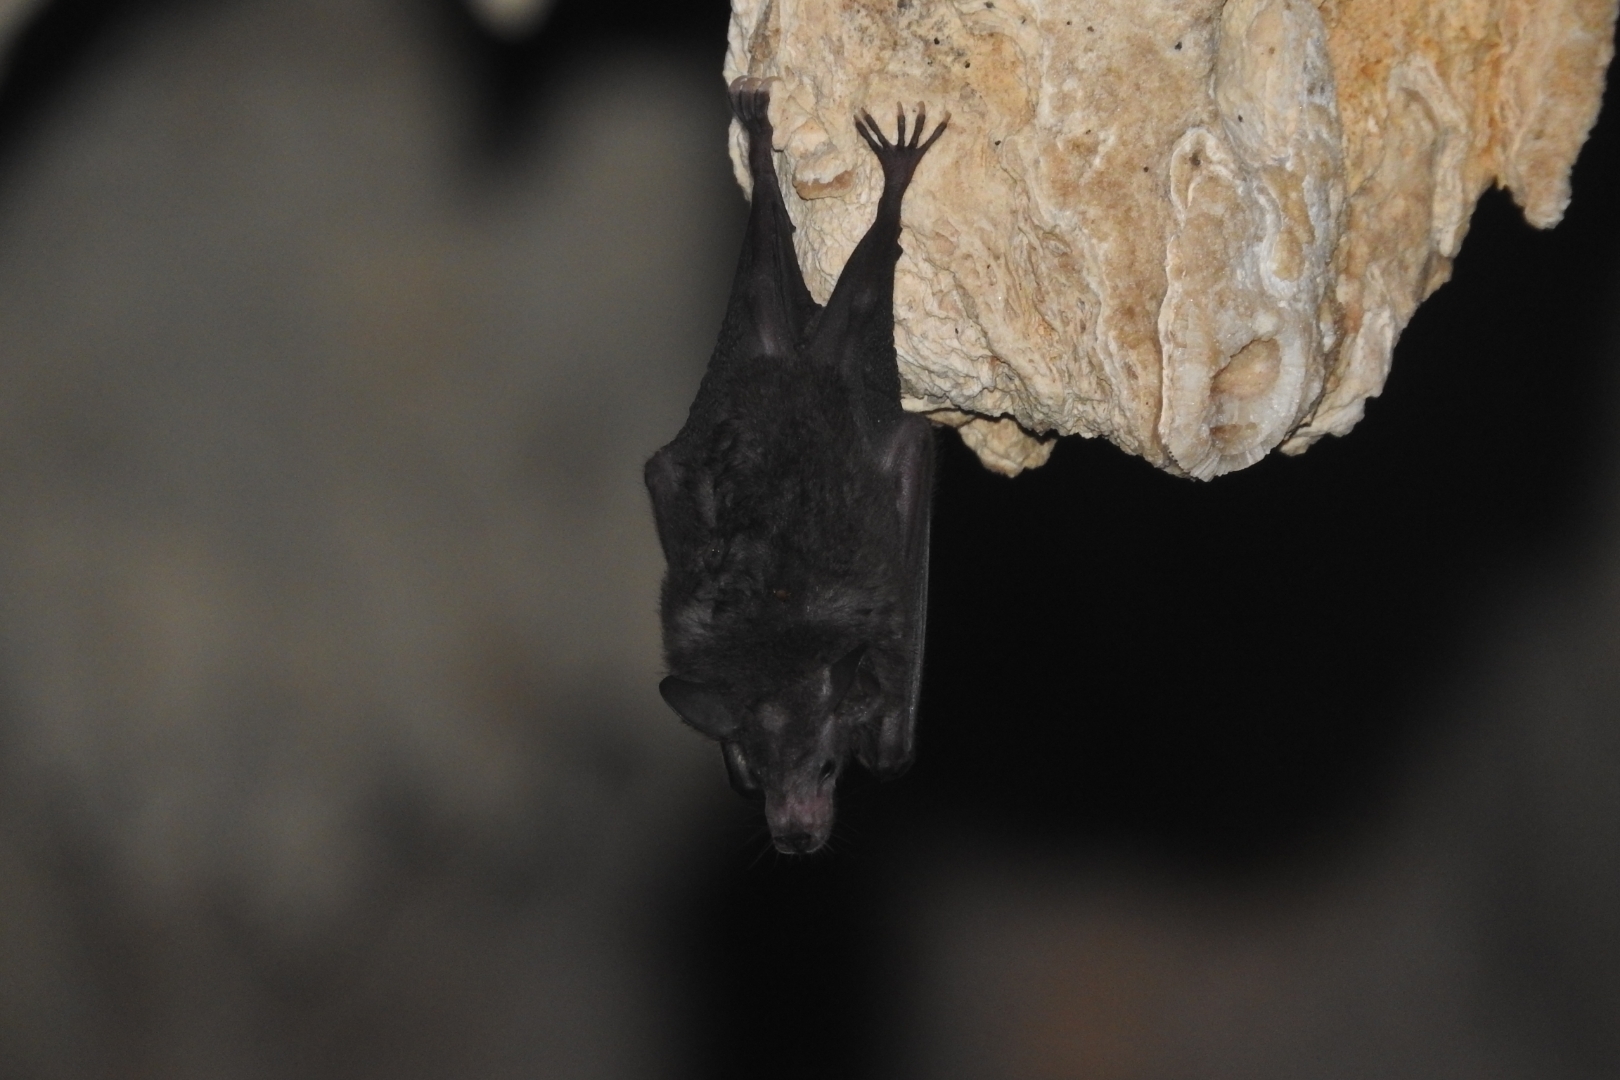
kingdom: Animalia
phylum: Chordata
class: Mammalia
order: Chiroptera
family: Phyllostomidae
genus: Glossophaga
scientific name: Glossophaga soricina
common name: Pallas's long-tongued bat
